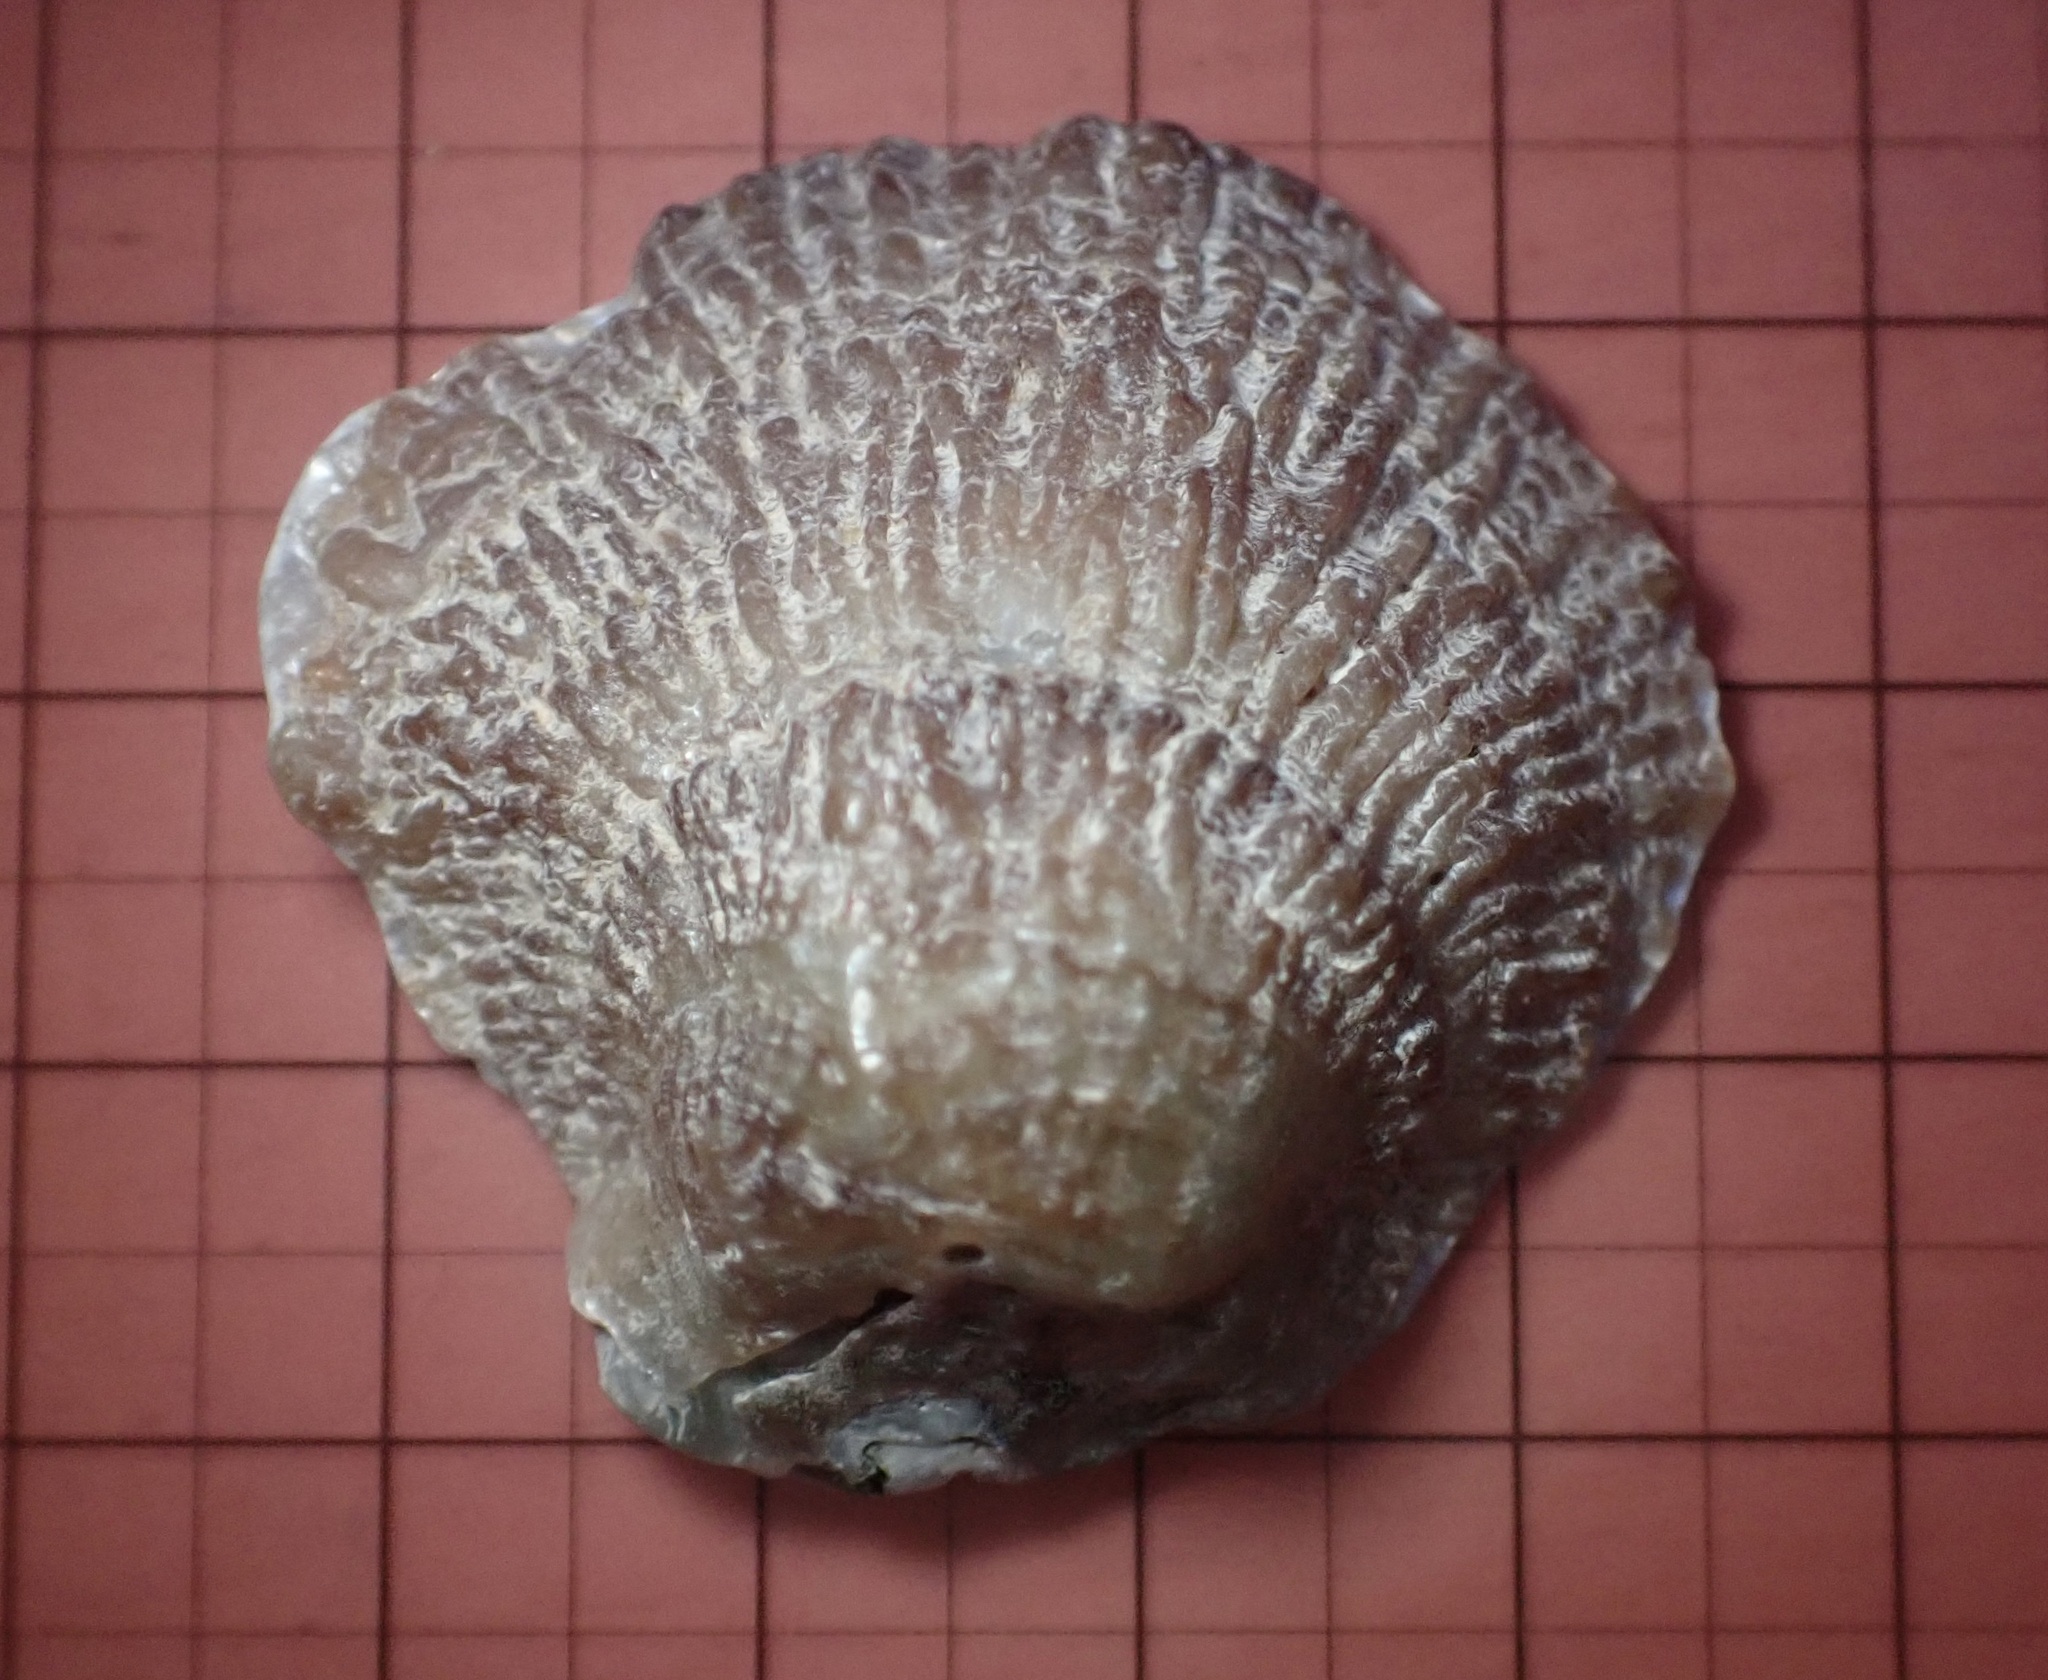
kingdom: Animalia
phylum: Mollusca
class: Bivalvia
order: Pectinida
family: Anomiidae
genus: Pododesmus
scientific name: Pododesmus macrochisma
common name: Alaska jingle
